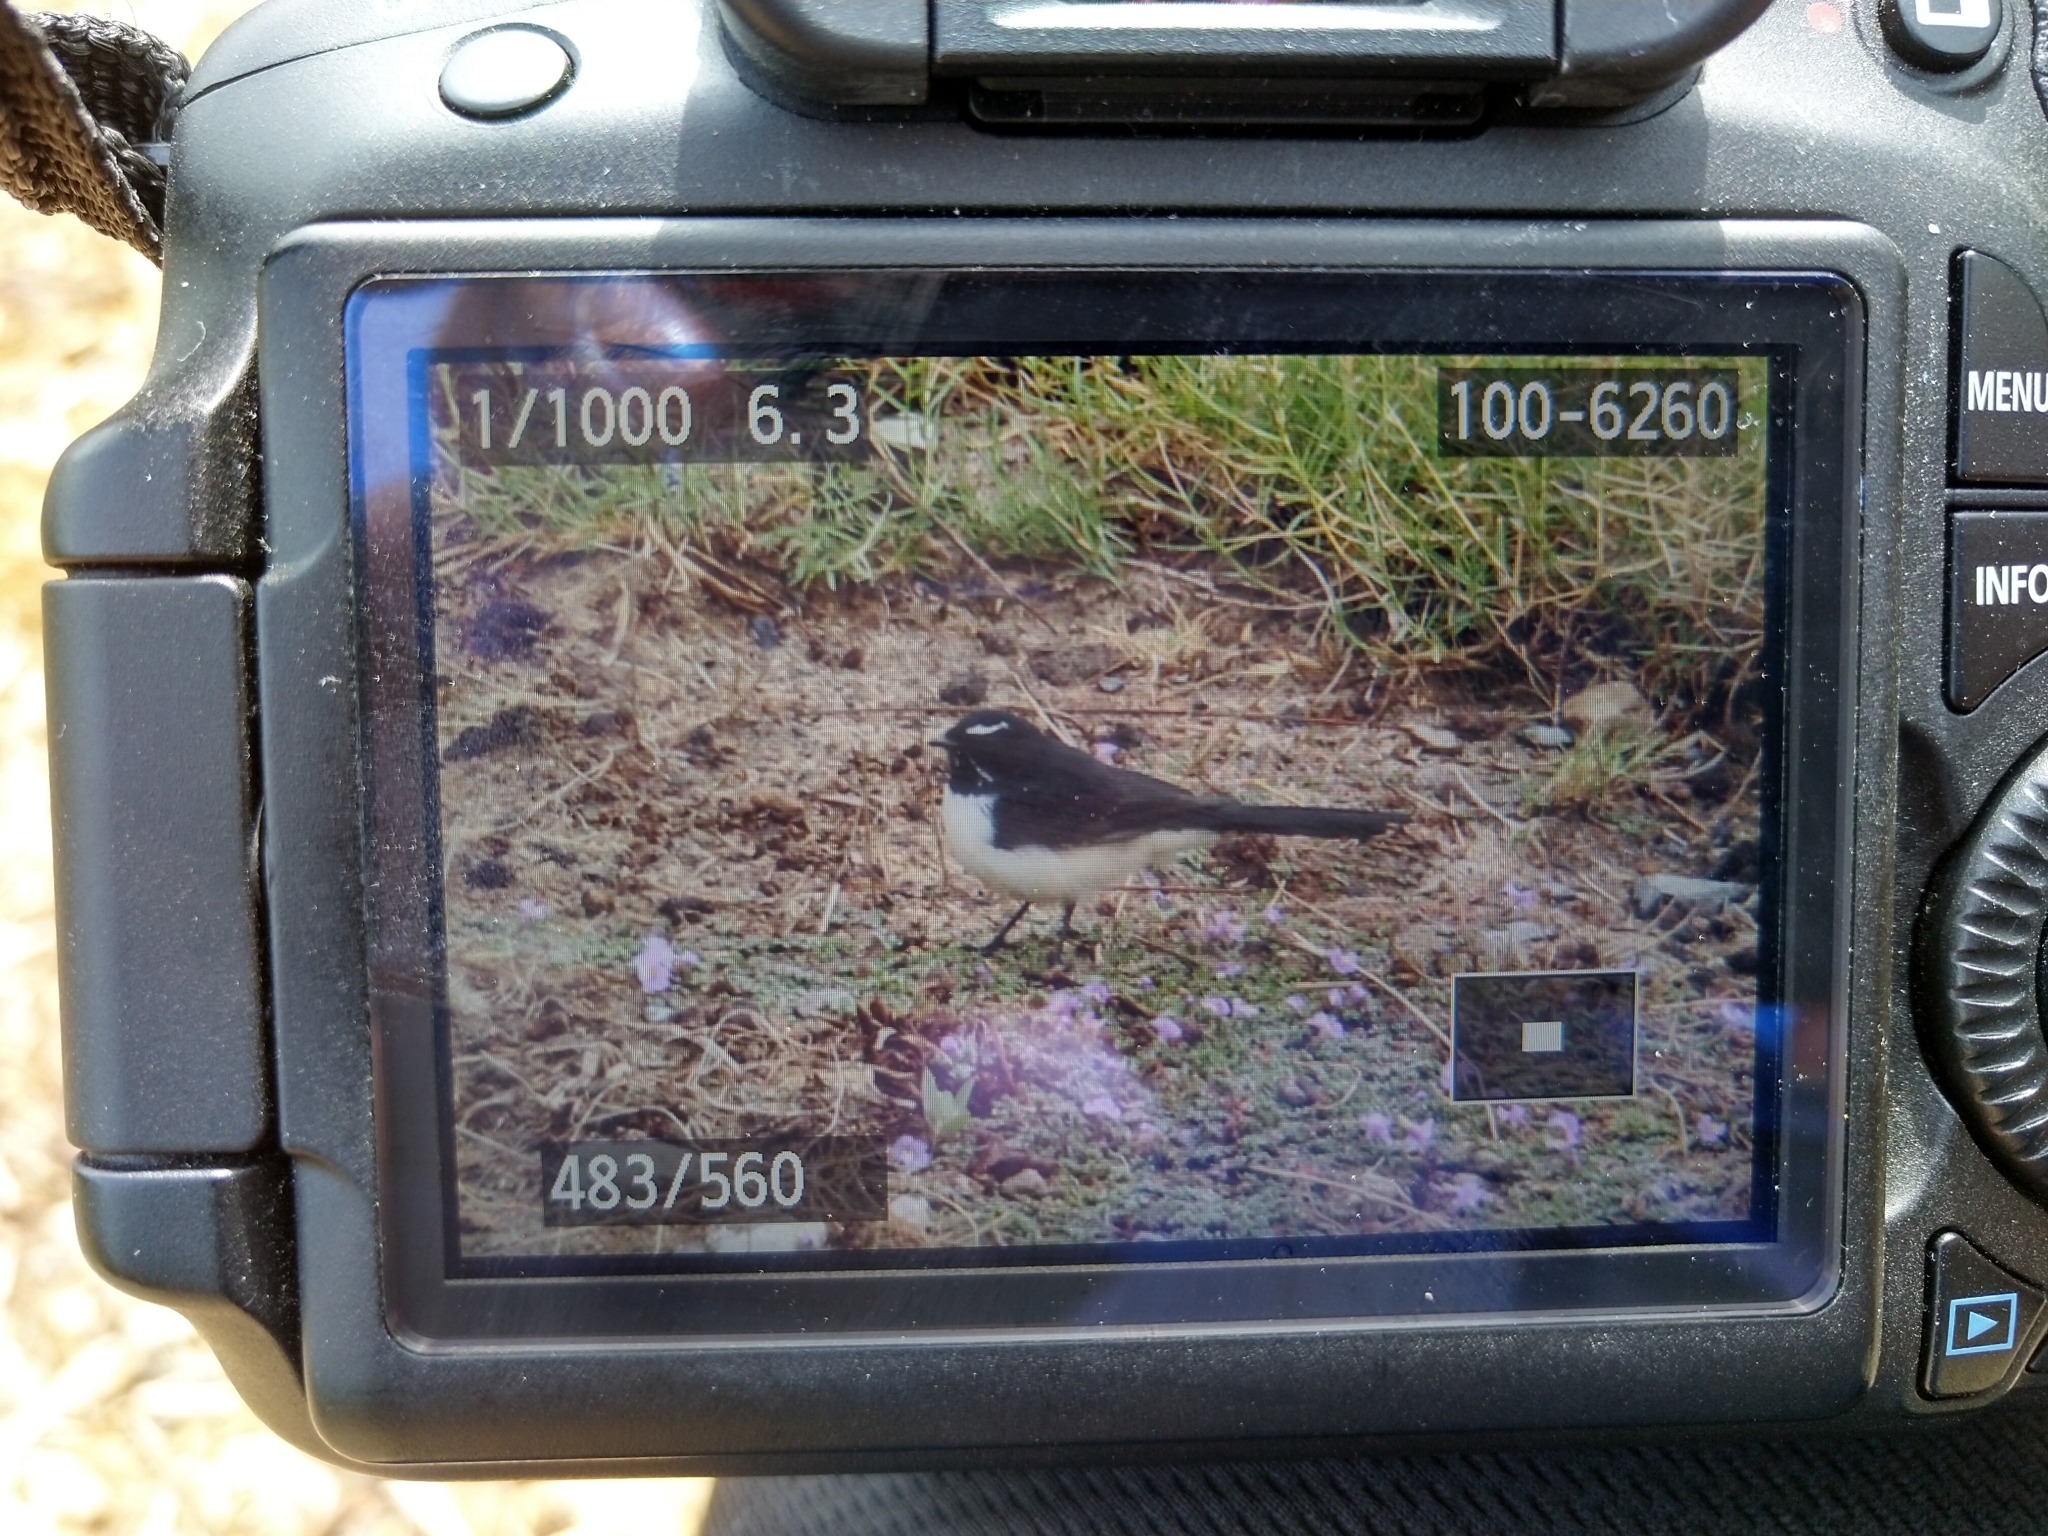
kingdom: Animalia
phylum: Chordata
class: Aves
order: Passeriformes
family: Rhipiduridae
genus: Rhipidura
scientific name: Rhipidura leucophrys
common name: Willie wagtail
